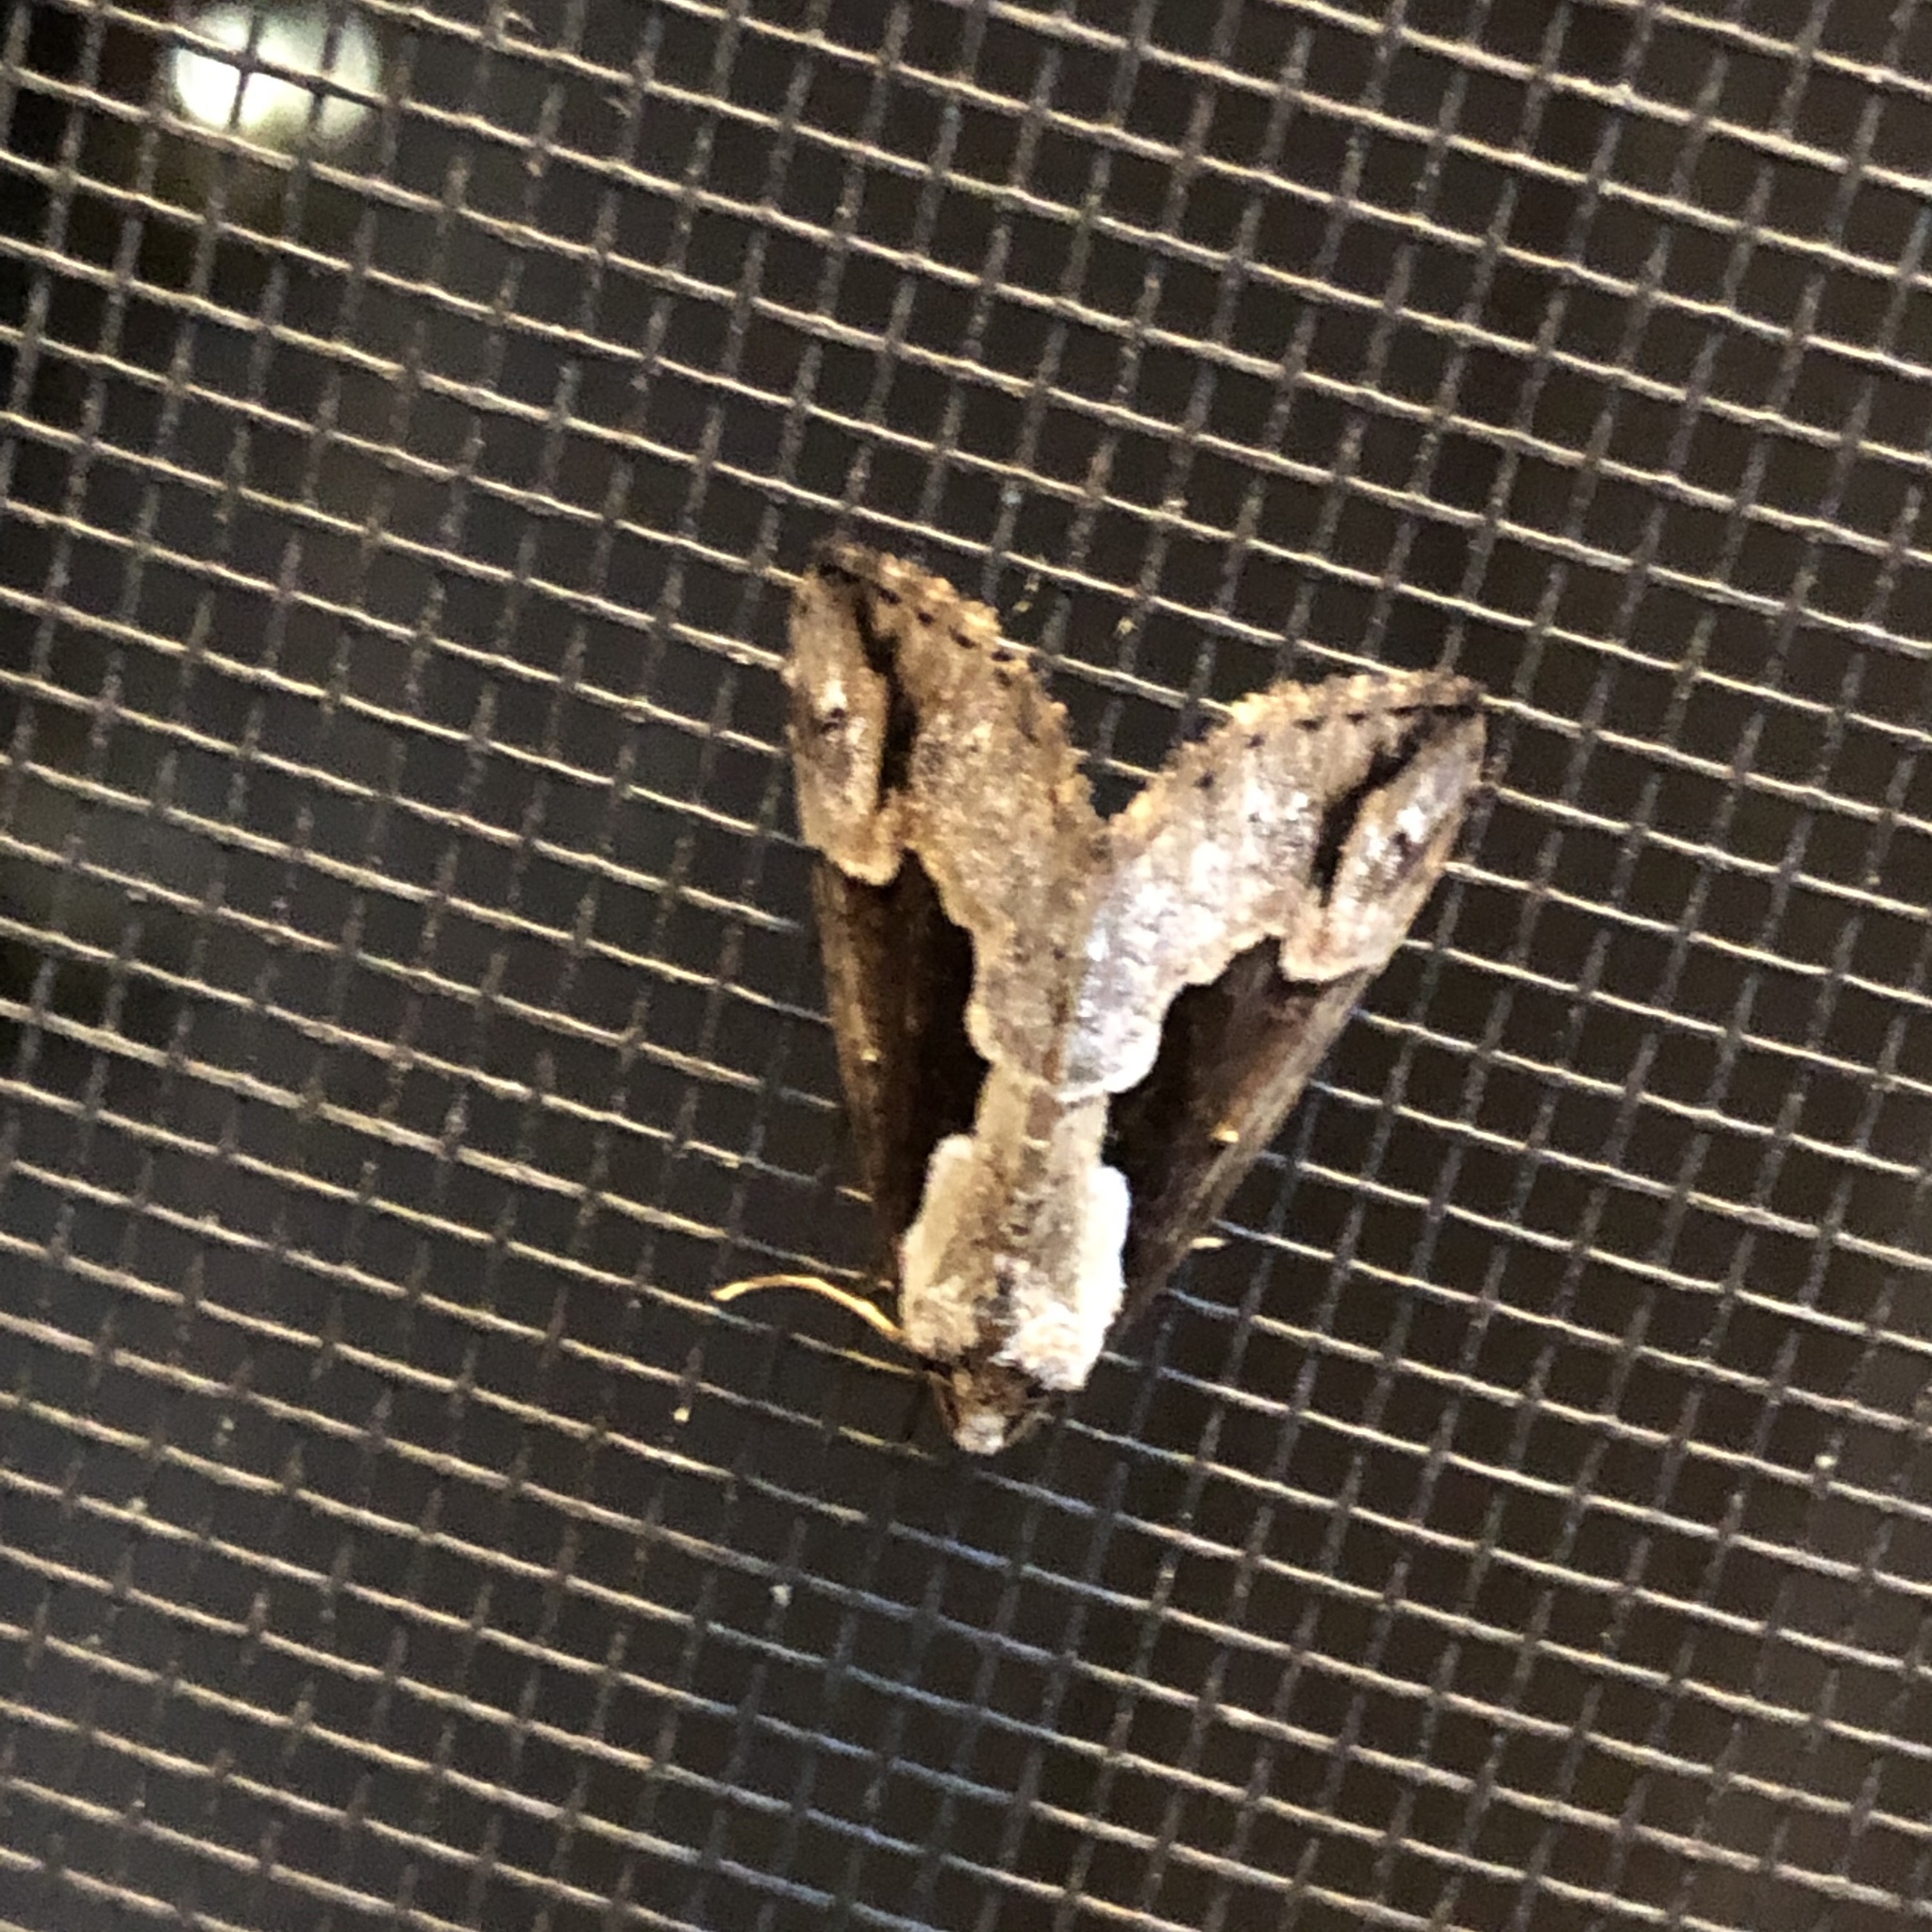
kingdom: Animalia
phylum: Arthropoda
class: Insecta
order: Lepidoptera
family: Erebidae
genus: Hypena
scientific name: Hypena baltimoralis
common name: Baltimore snout
